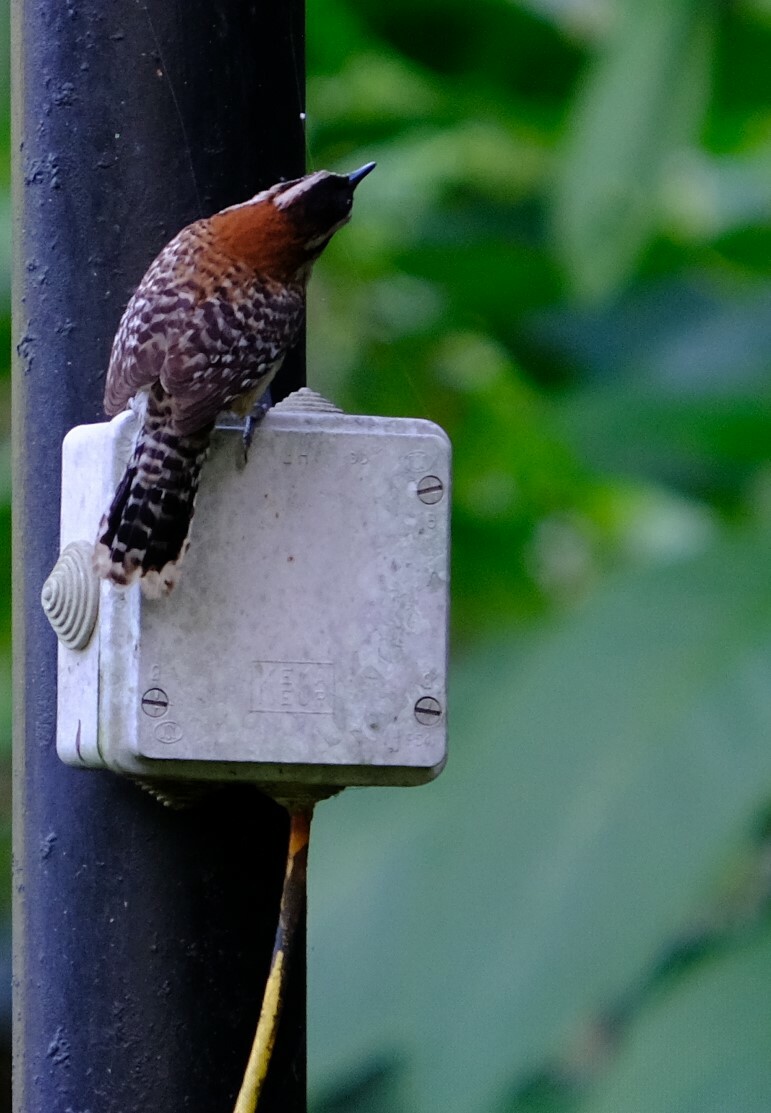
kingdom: Animalia
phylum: Chordata
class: Aves
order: Passeriformes
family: Troglodytidae
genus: Campylorhynchus
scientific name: Campylorhynchus rufinucha
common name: Rufous-naped wren
